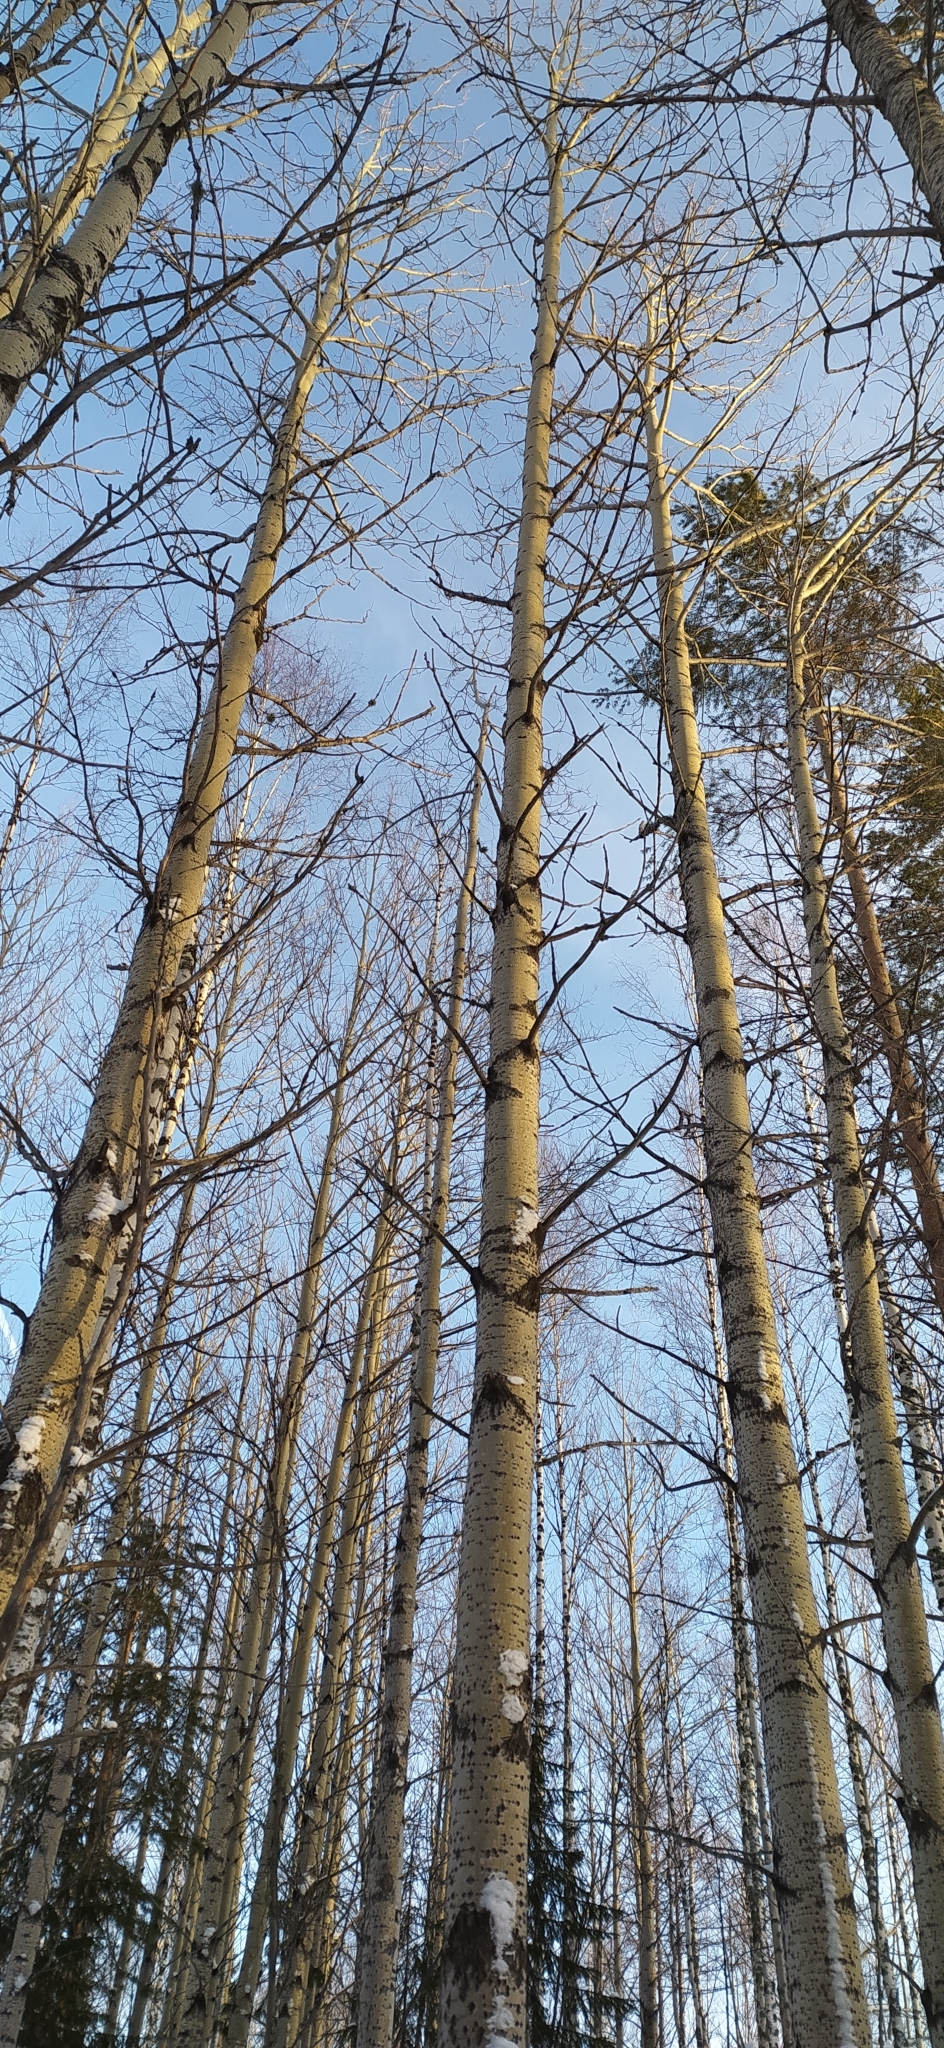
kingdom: Plantae
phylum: Tracheophyta
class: Magnoliopsida
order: Malpighiales
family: Salicaceae
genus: Populus
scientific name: Populus tremula
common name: European aspen
